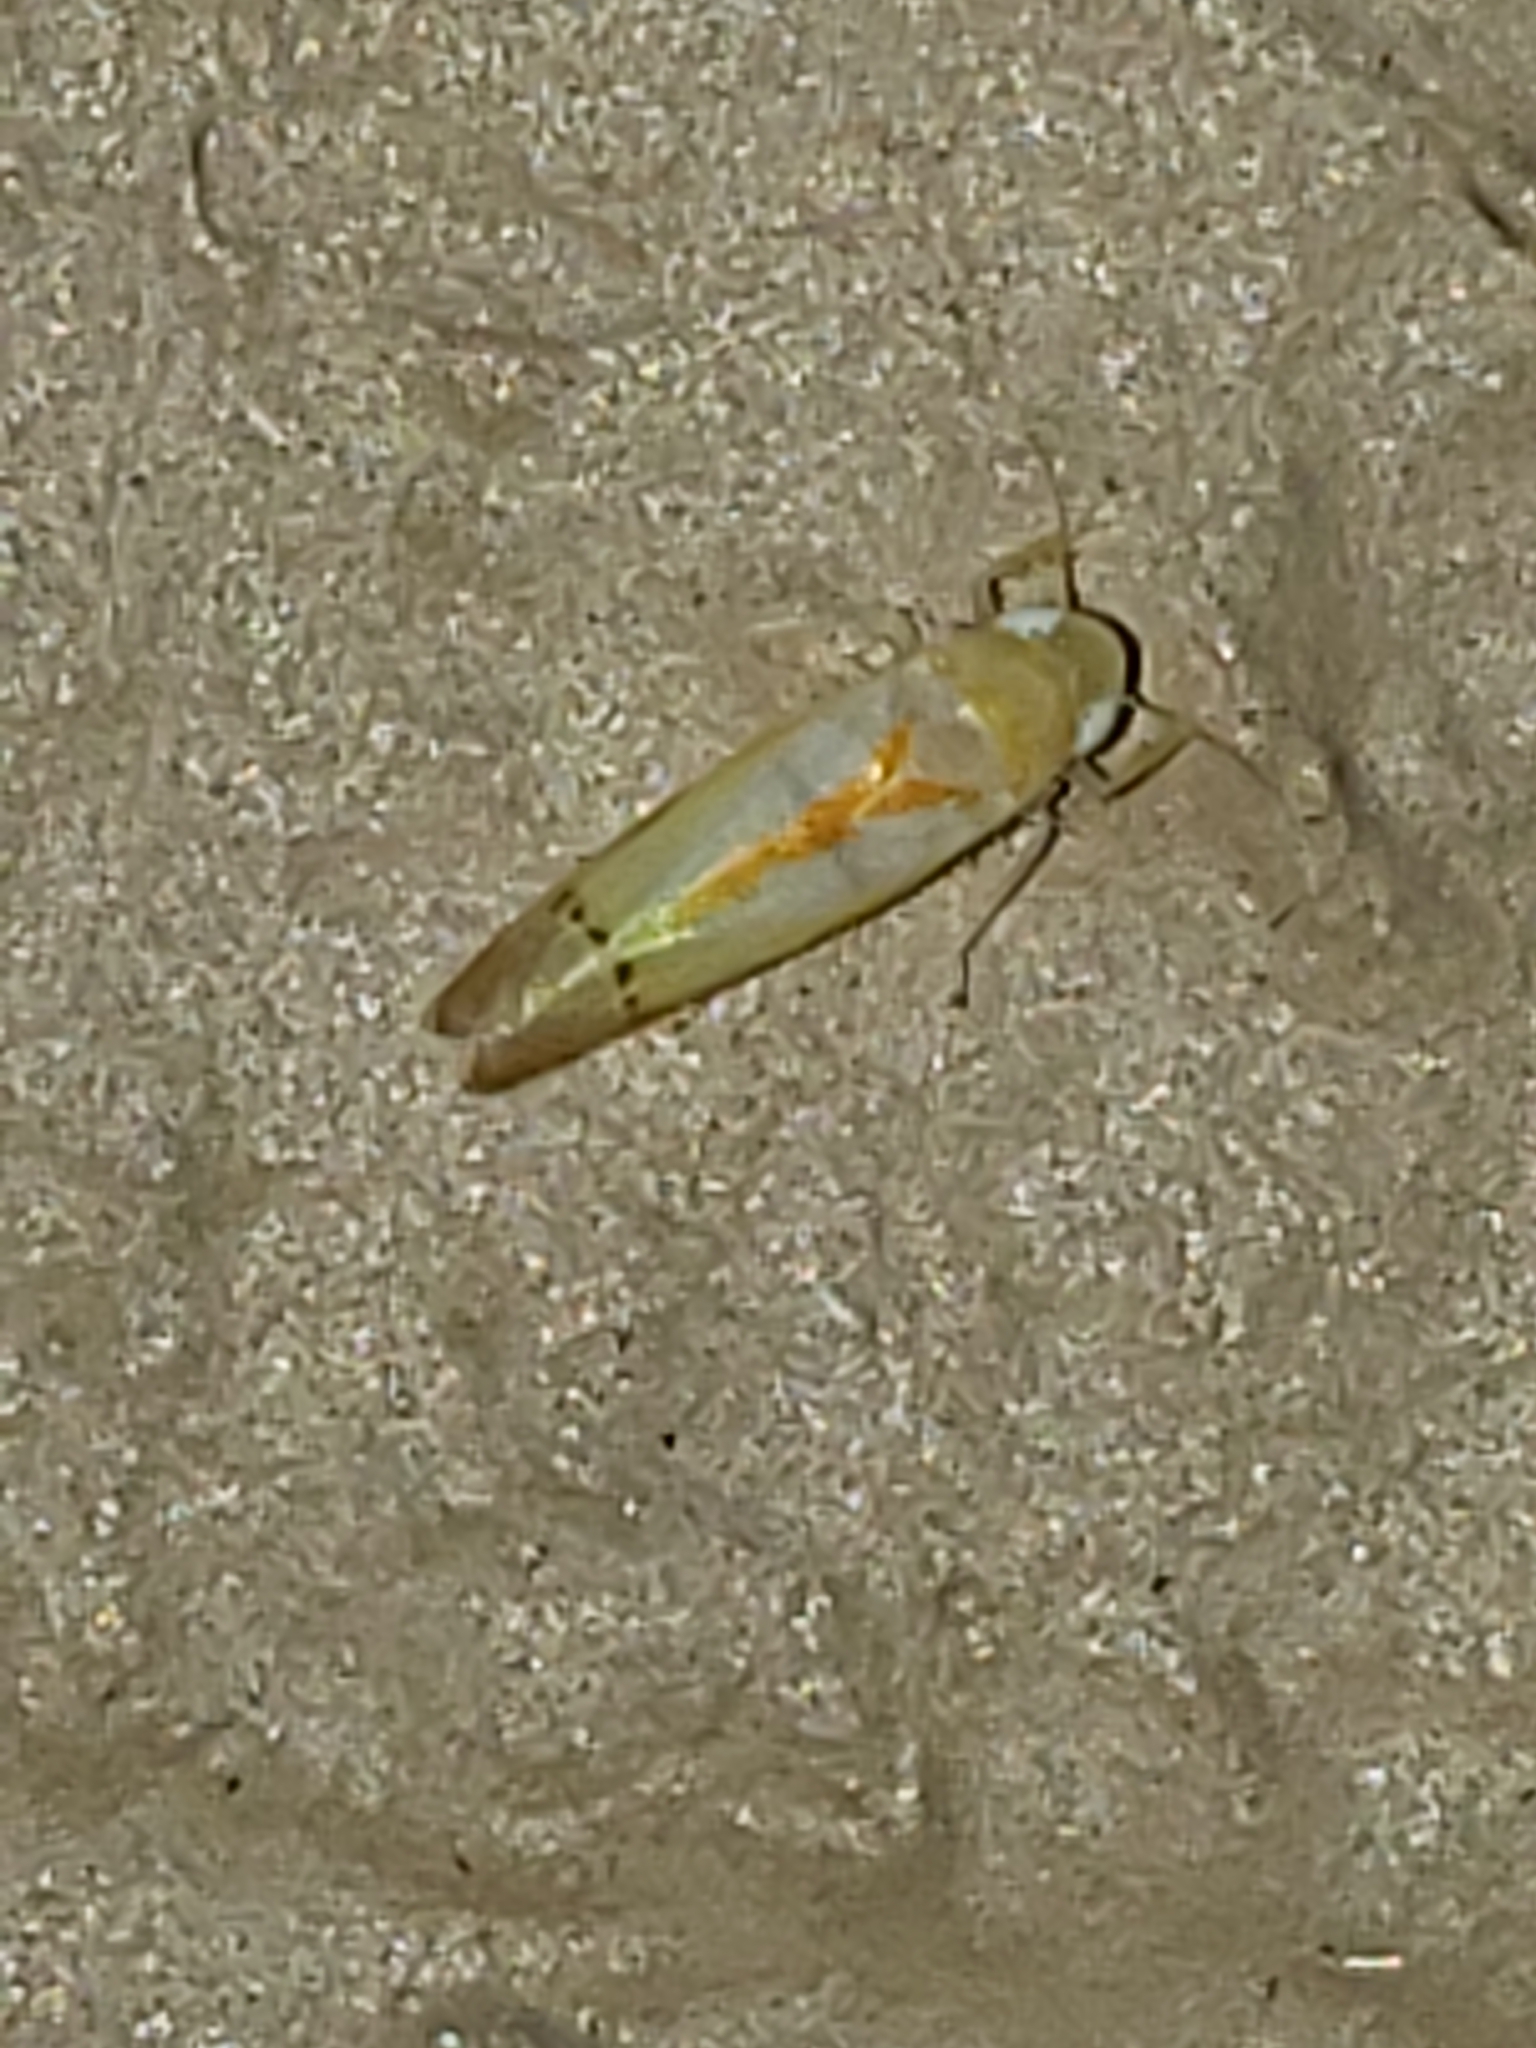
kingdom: Animalia
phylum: Arthropoda
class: Insecta
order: Hemiptera
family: Cicadellidae
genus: Ossiannilssonola
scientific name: Ossiannilssonola australis
